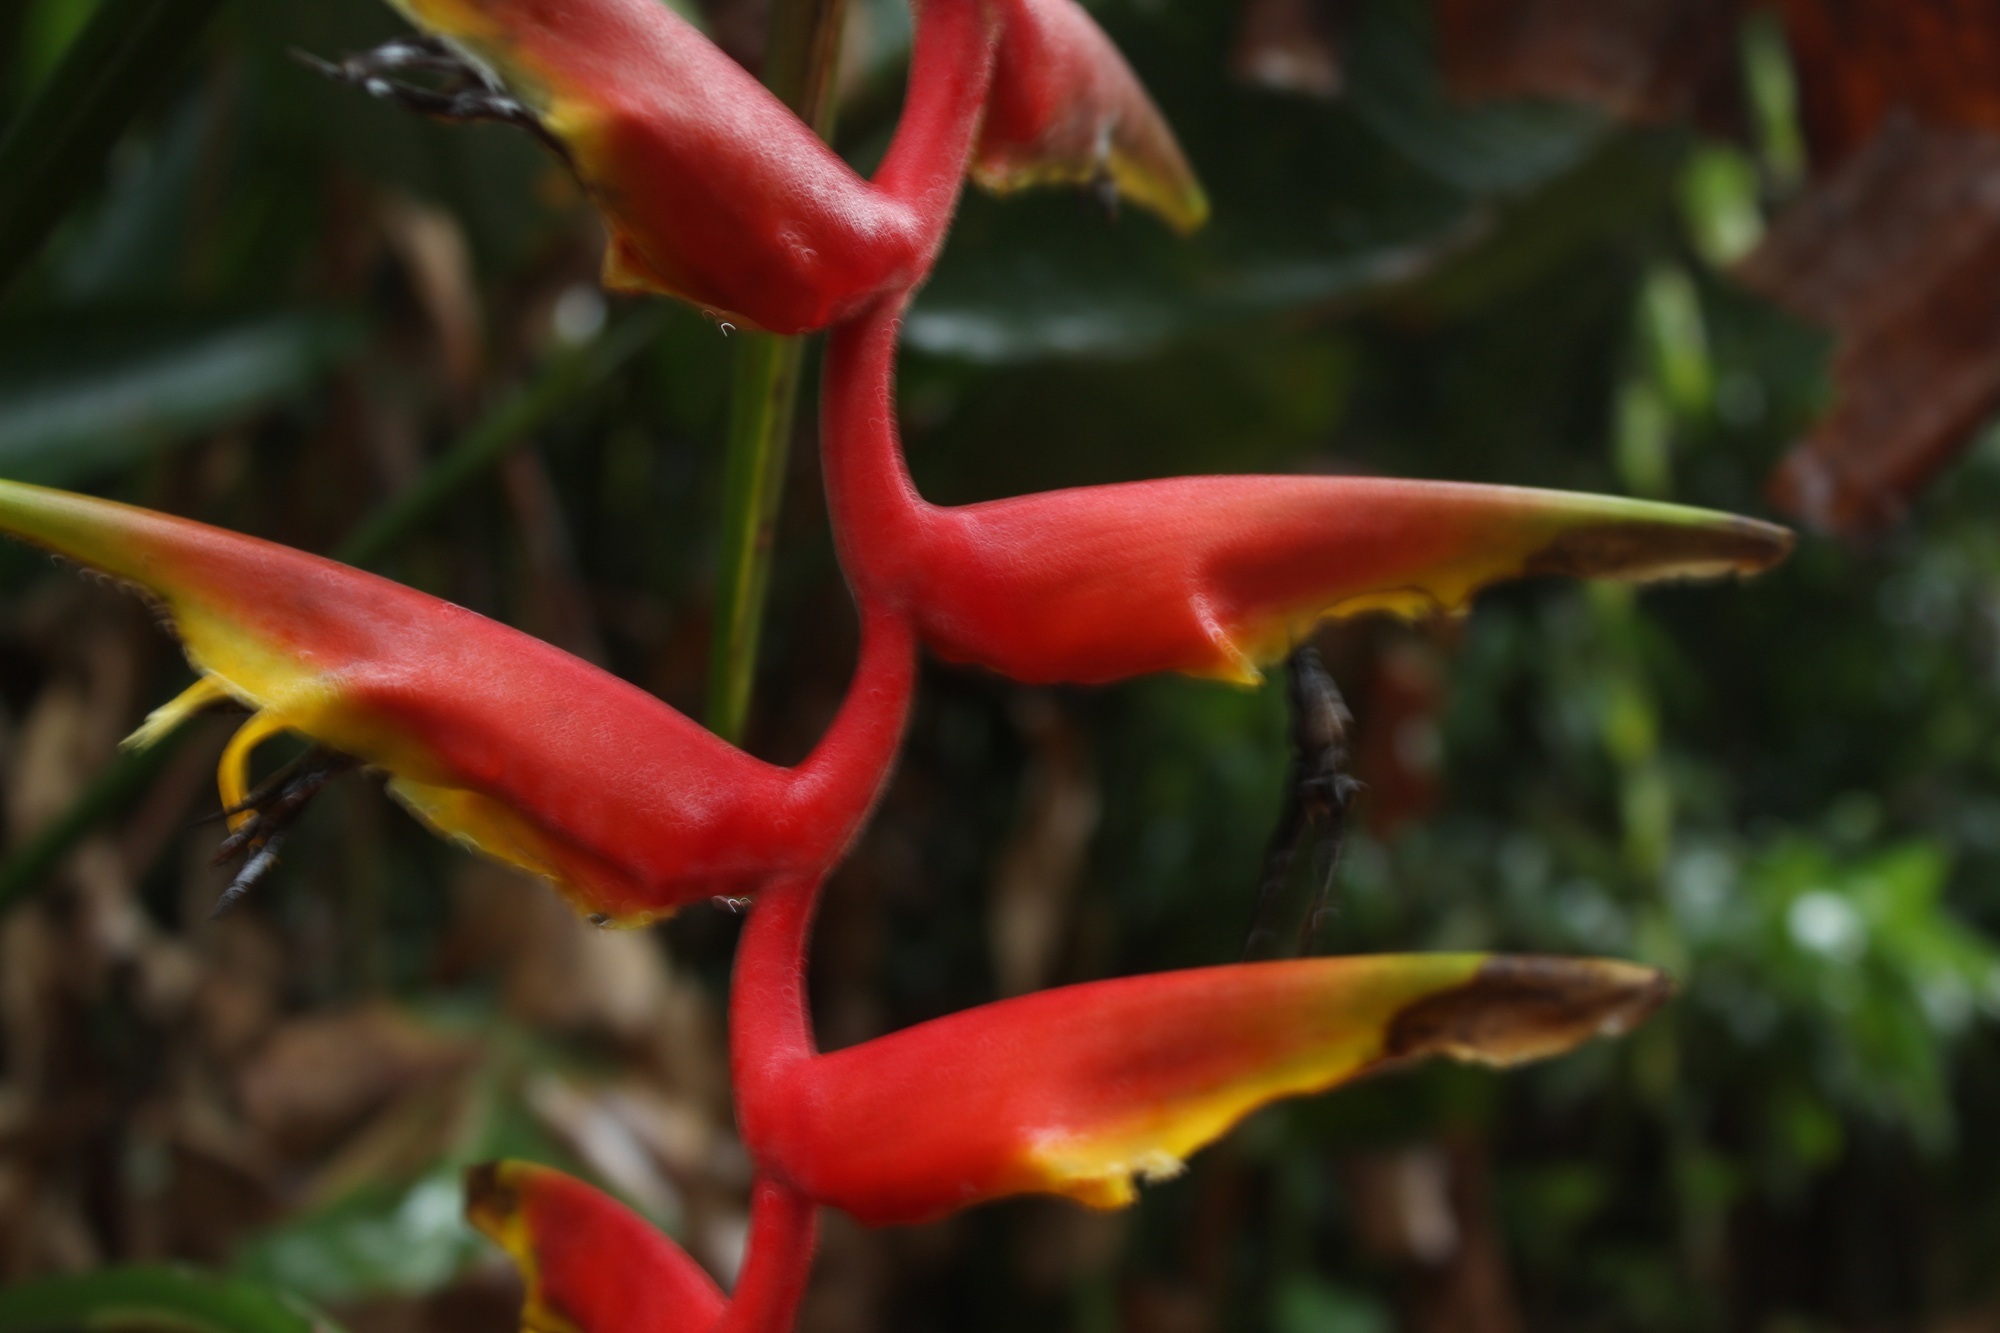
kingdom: Plantae
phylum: Tracheophyta
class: Liliopsida
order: Zingiberales
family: Heliconiaceae
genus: Heliconia
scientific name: Heliconia marginata
